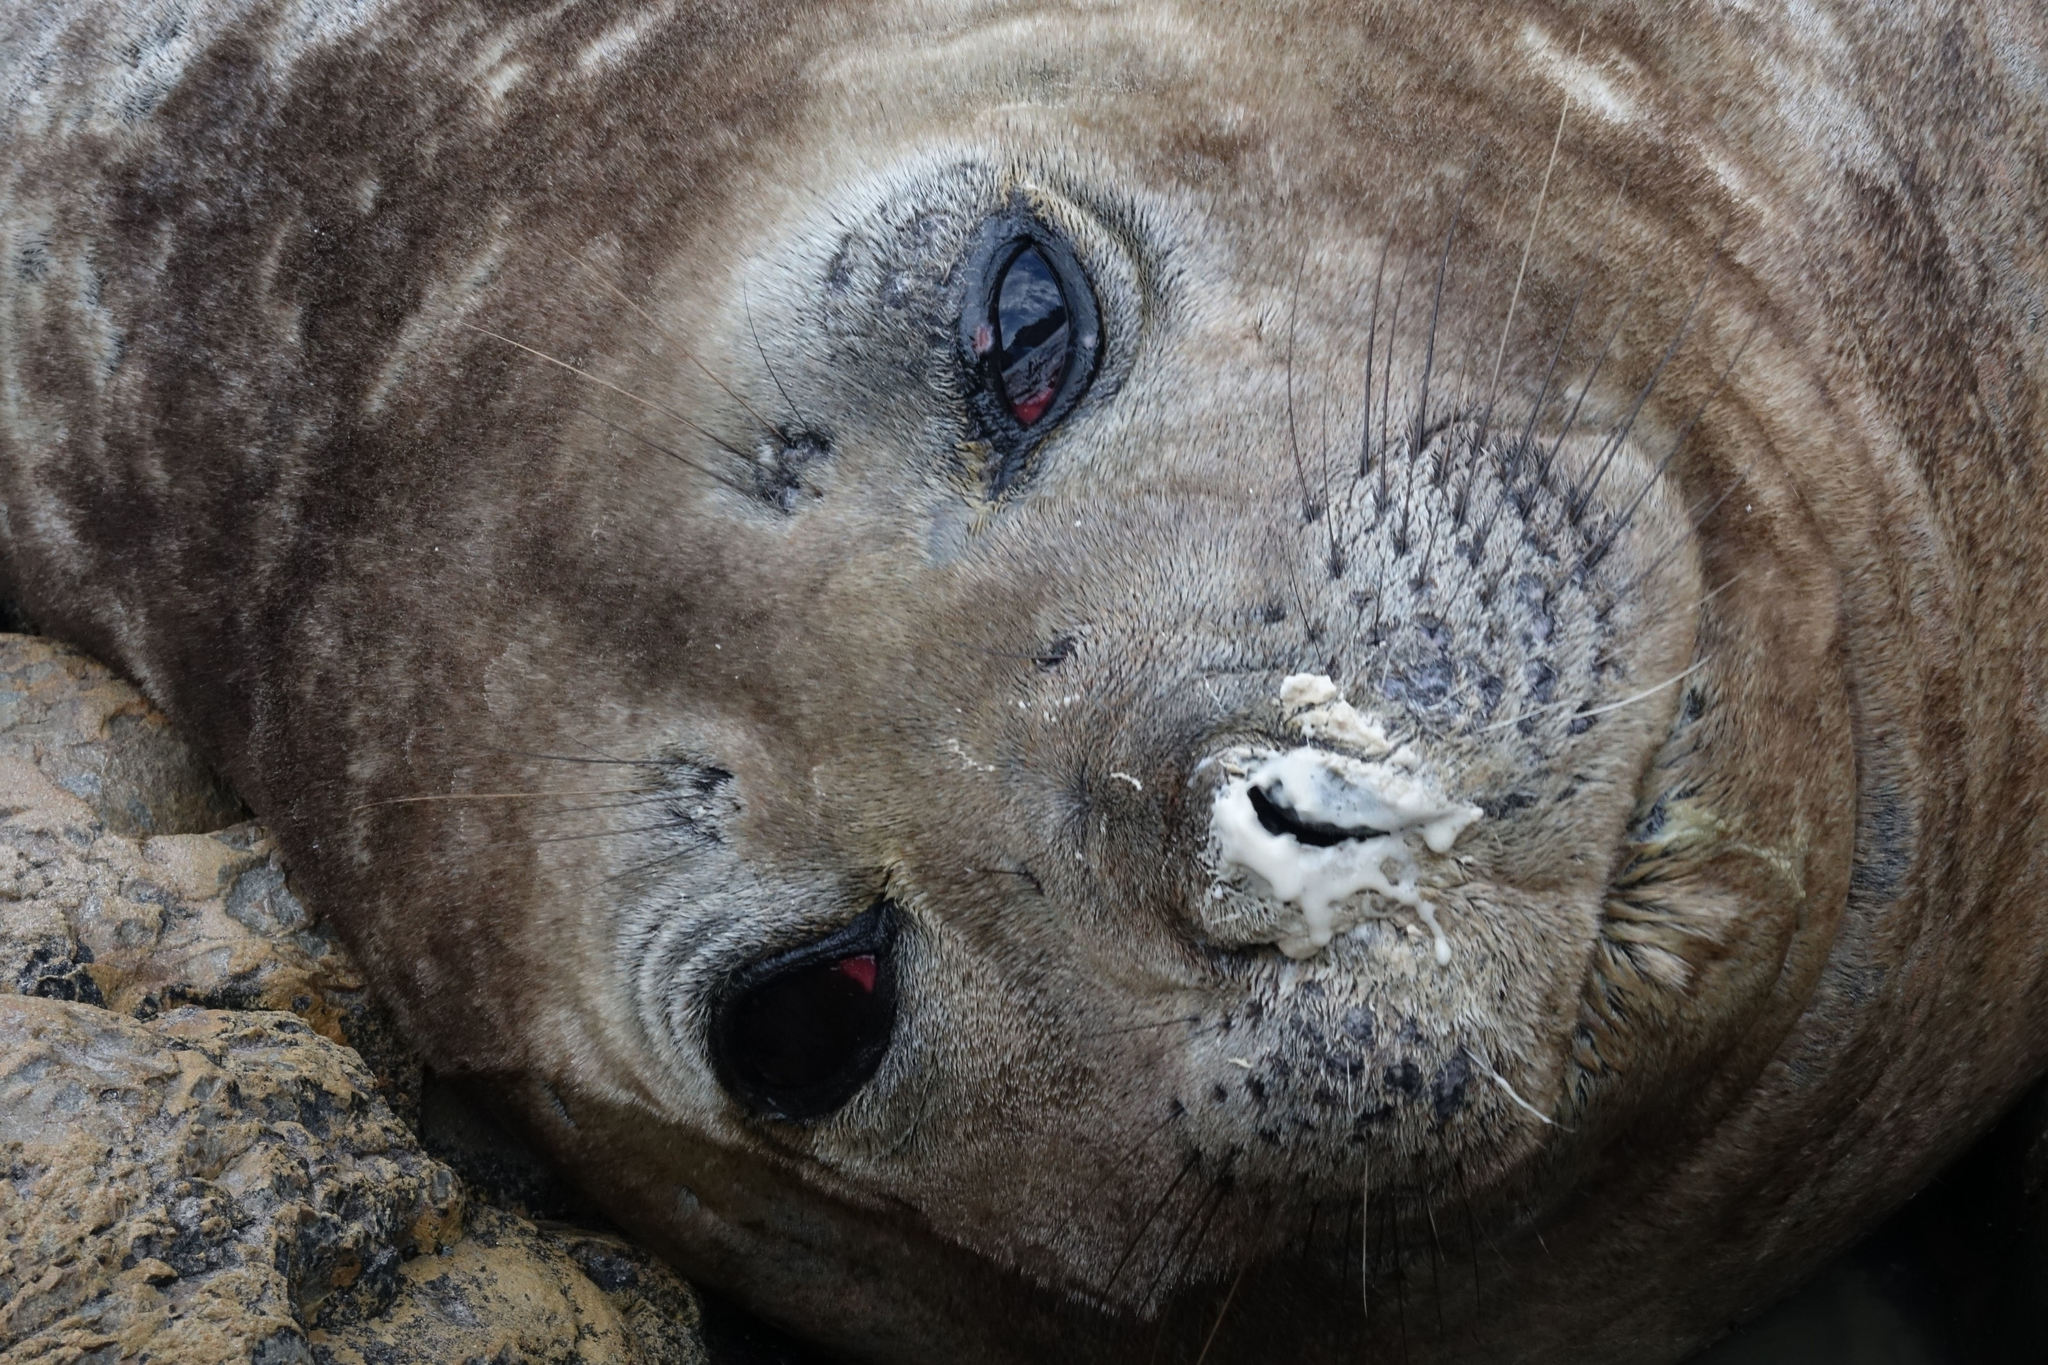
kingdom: Animalia
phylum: Chordata
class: Mammalia
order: Carnivora
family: Phocidae
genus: Mirounga
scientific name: Mirounga leonina
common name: Southern elephant seal
